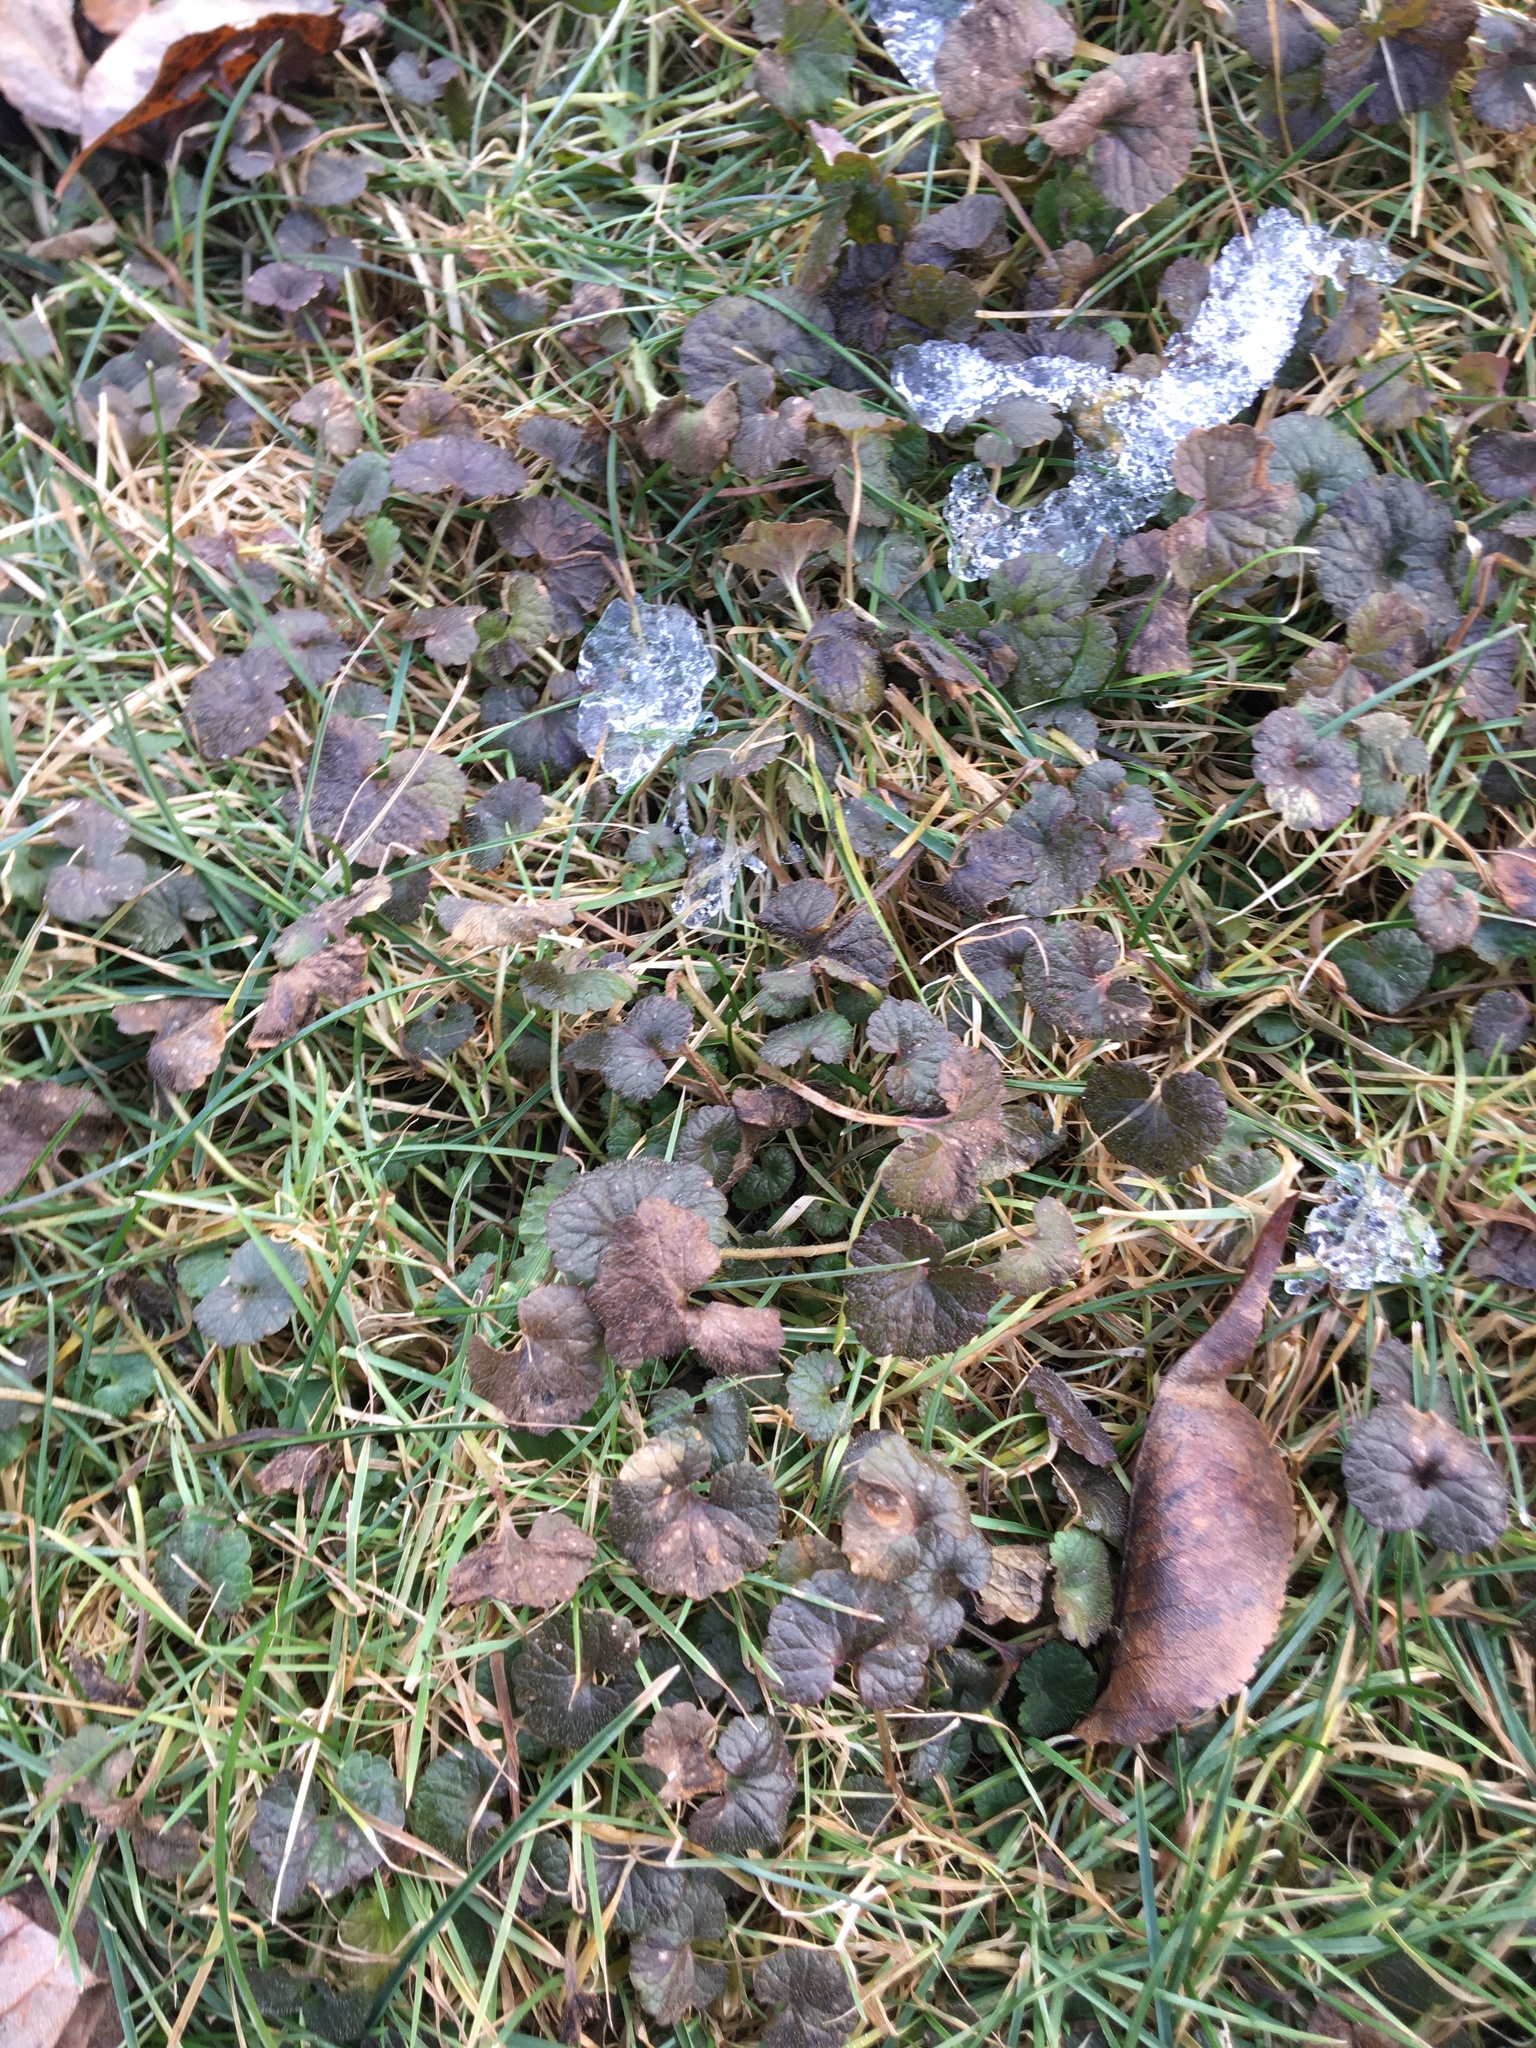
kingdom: Plantae
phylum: Tracheophyta
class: Magnoliopsida
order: Lamiales
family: Lamiaceae
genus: Glechoma
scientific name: Glechoma hederacea
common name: Ground ivy
